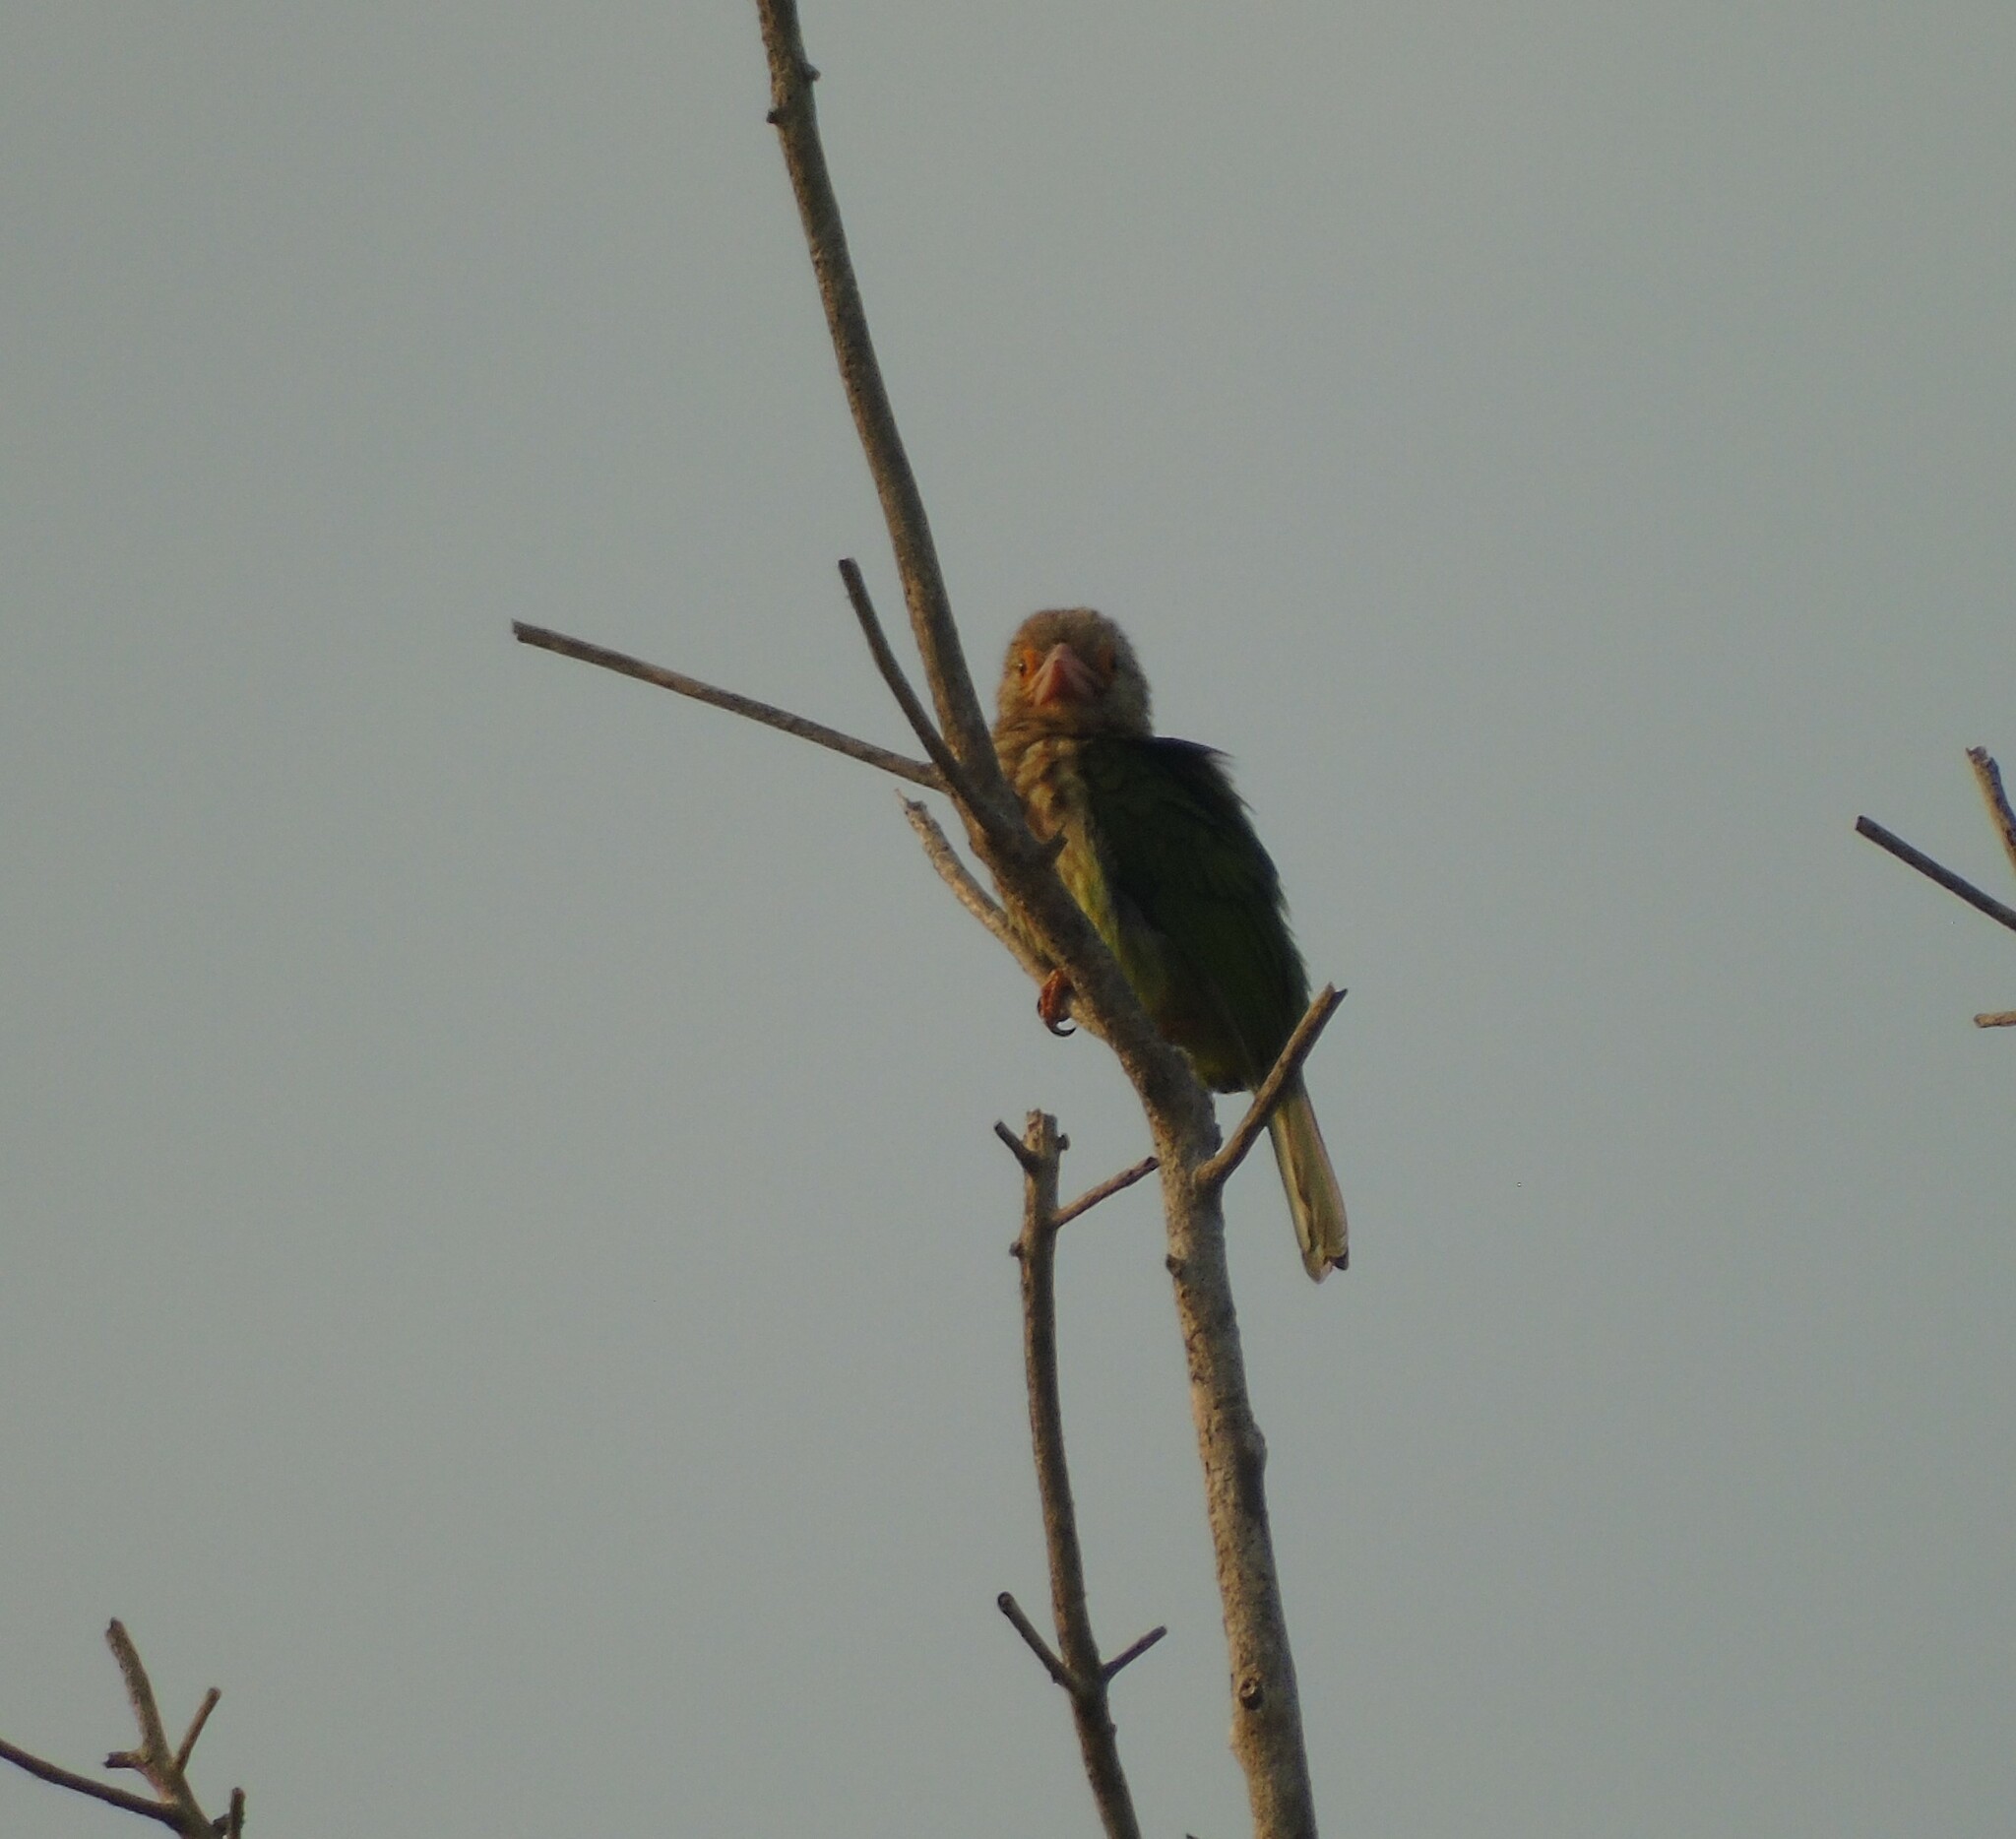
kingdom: Animalia
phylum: Chordata
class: Aves
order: Piciformes
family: Megalaimidae
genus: Psilopogon
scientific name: Psilopogon lineatus
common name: Lineated barbet
